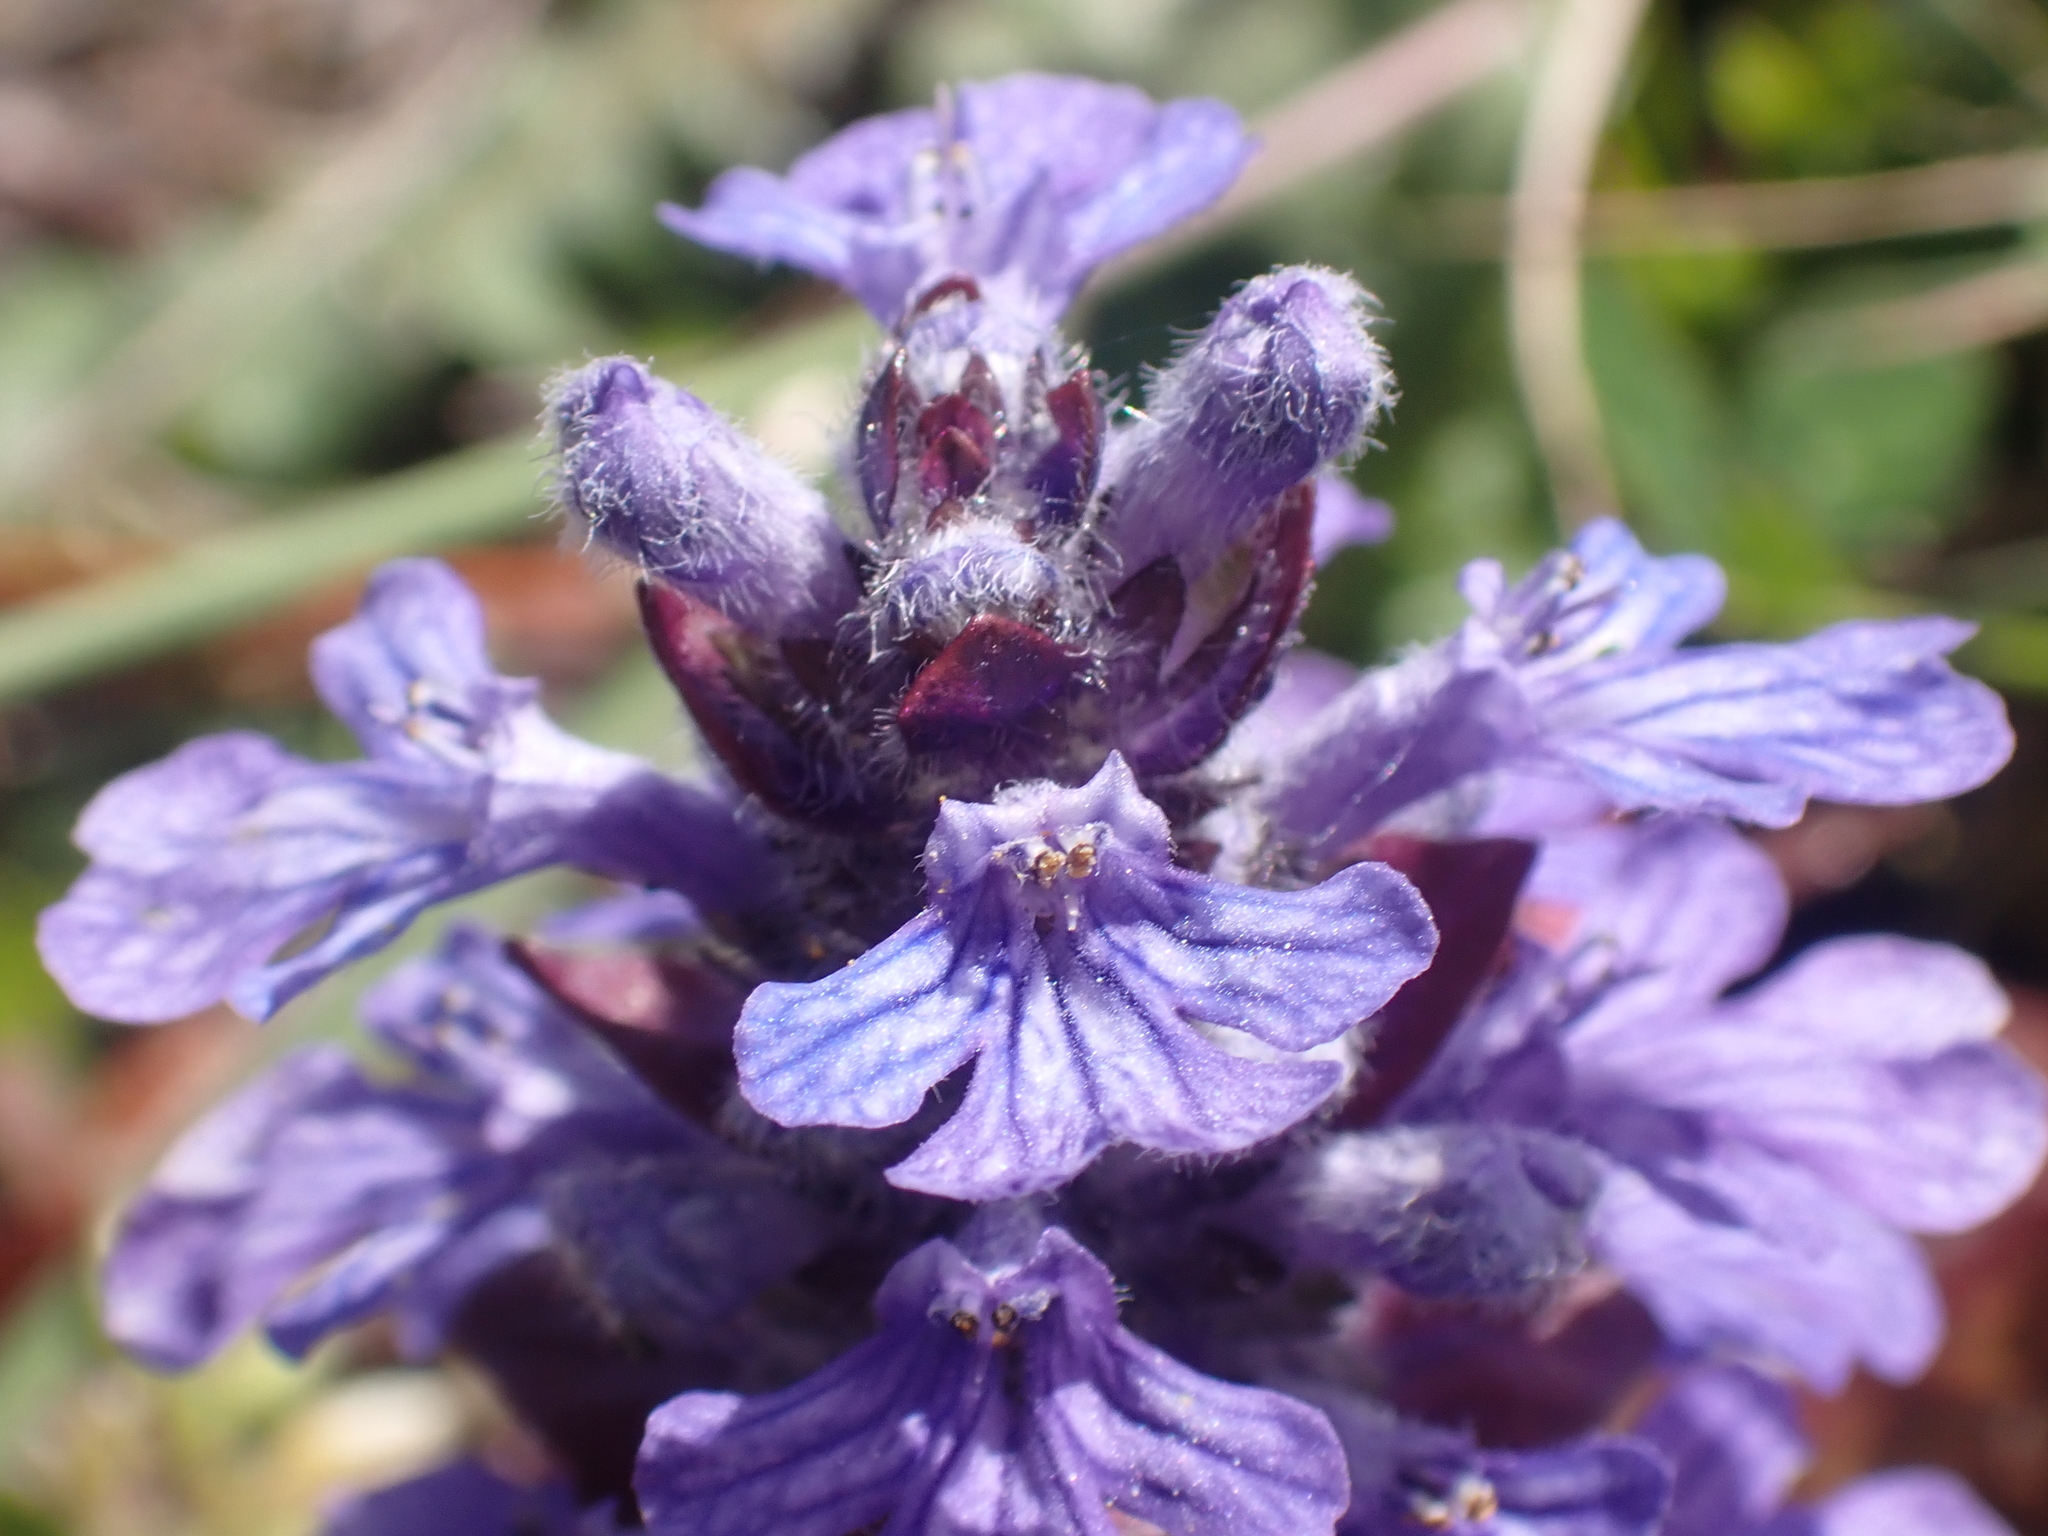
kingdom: Plantae
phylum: Tracheophyta
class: Magnoliopsida
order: Lamiales
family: Lamiaceae
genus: Ajuga
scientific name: Ajuga reptans
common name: Bugle
